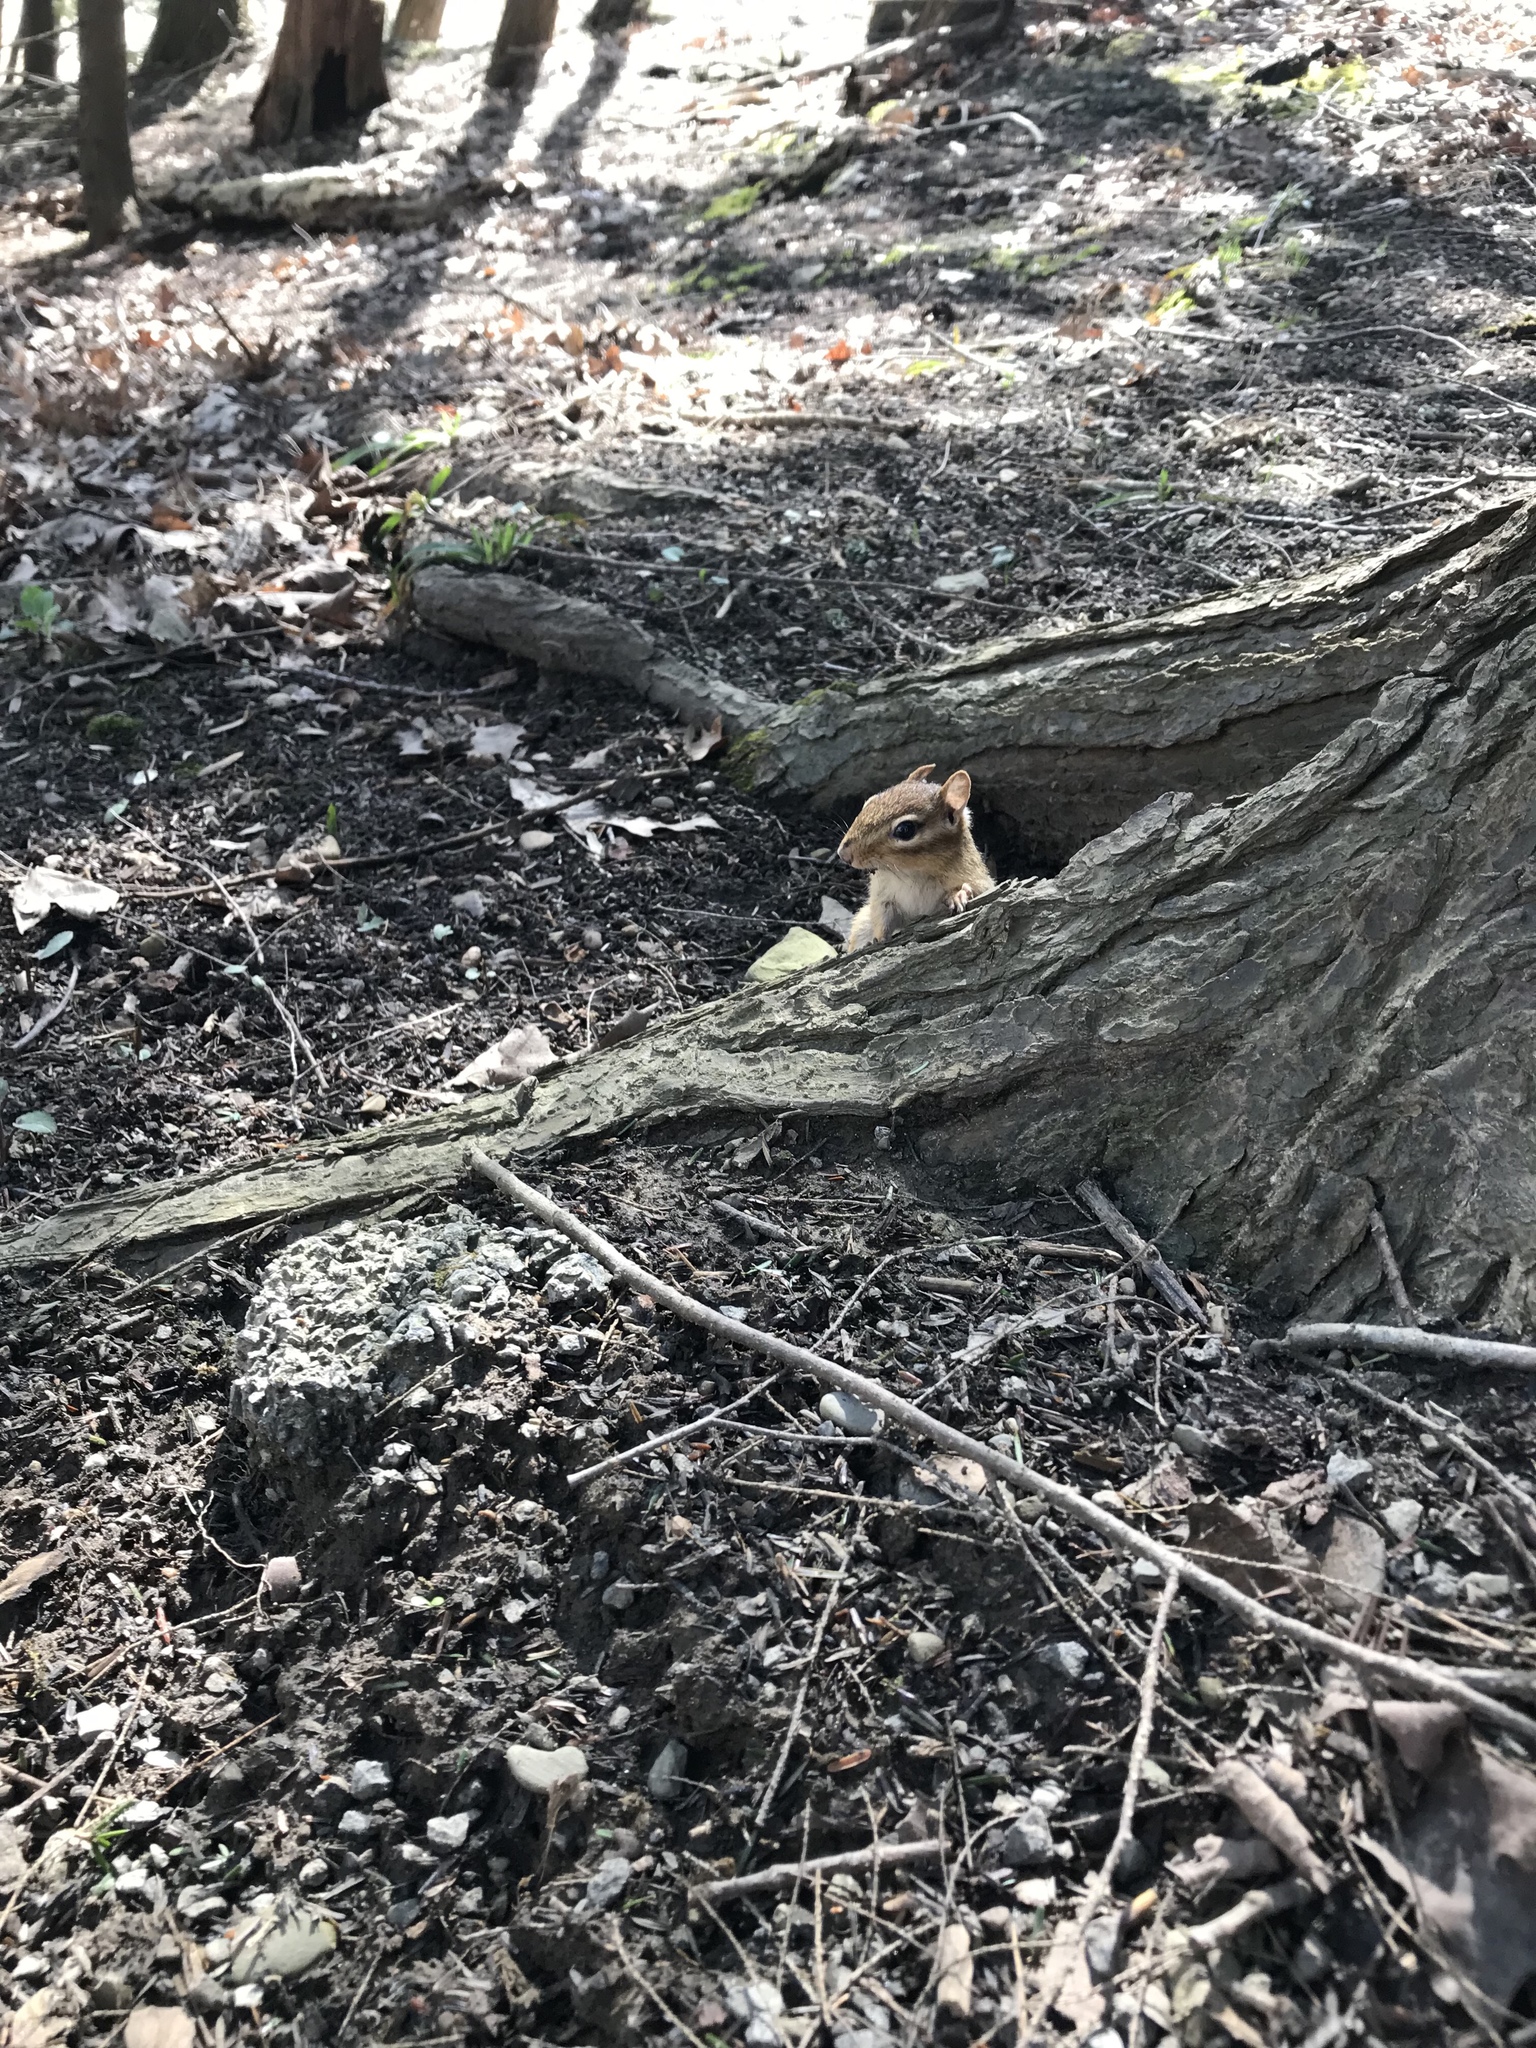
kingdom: Animalia
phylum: Chordata
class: Mammalia
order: Rodentia
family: Sciuridae
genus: Tamias
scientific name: Tamias striatus
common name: Eastern chipmunk
